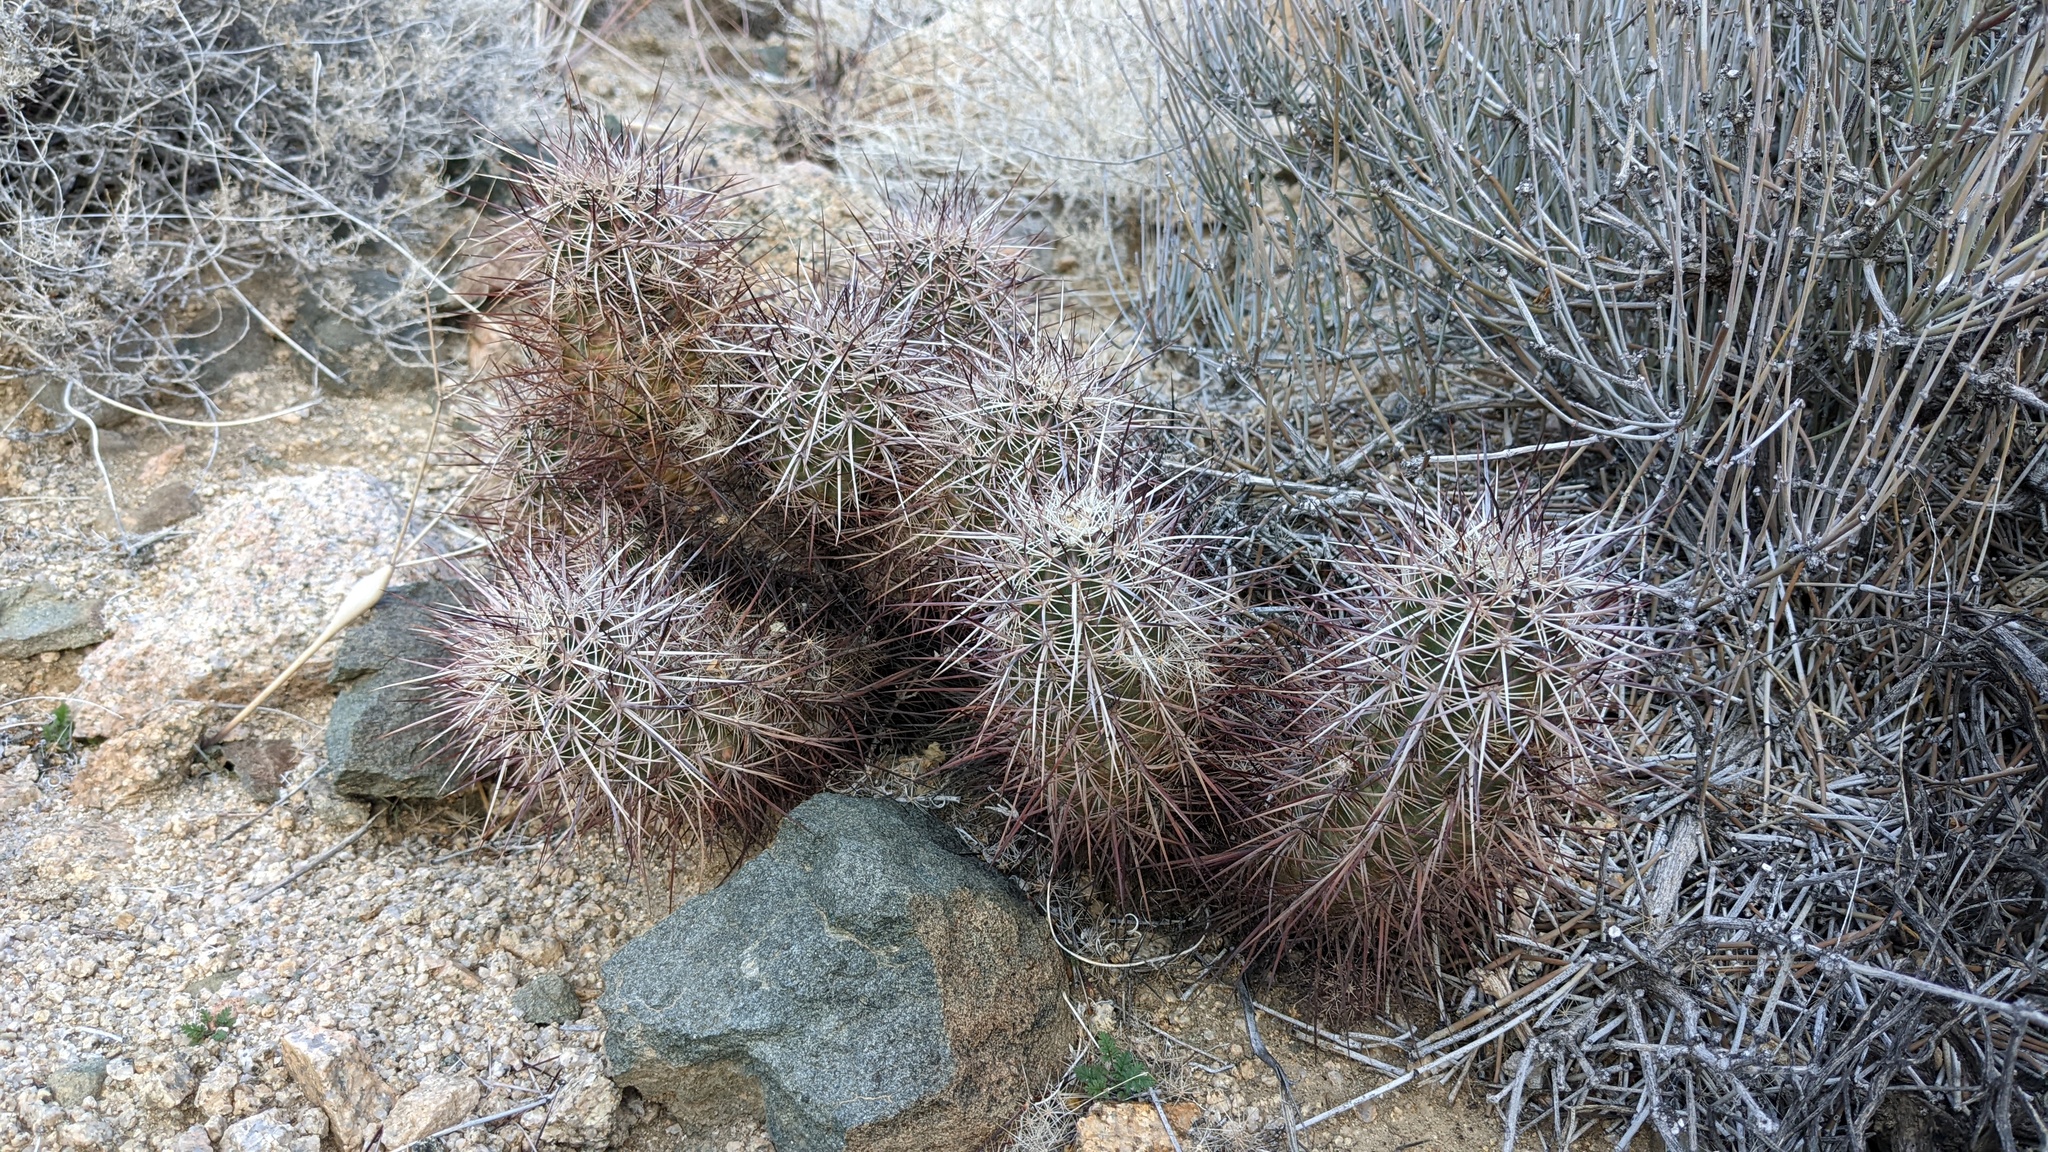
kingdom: Plantae
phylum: Tracheophyta
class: Magnoliopsida
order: Caryophyllales
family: Cactaceae
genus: Echinocereus
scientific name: Echinocereus engelmannii
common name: Engelmann's hedgehog cactus
